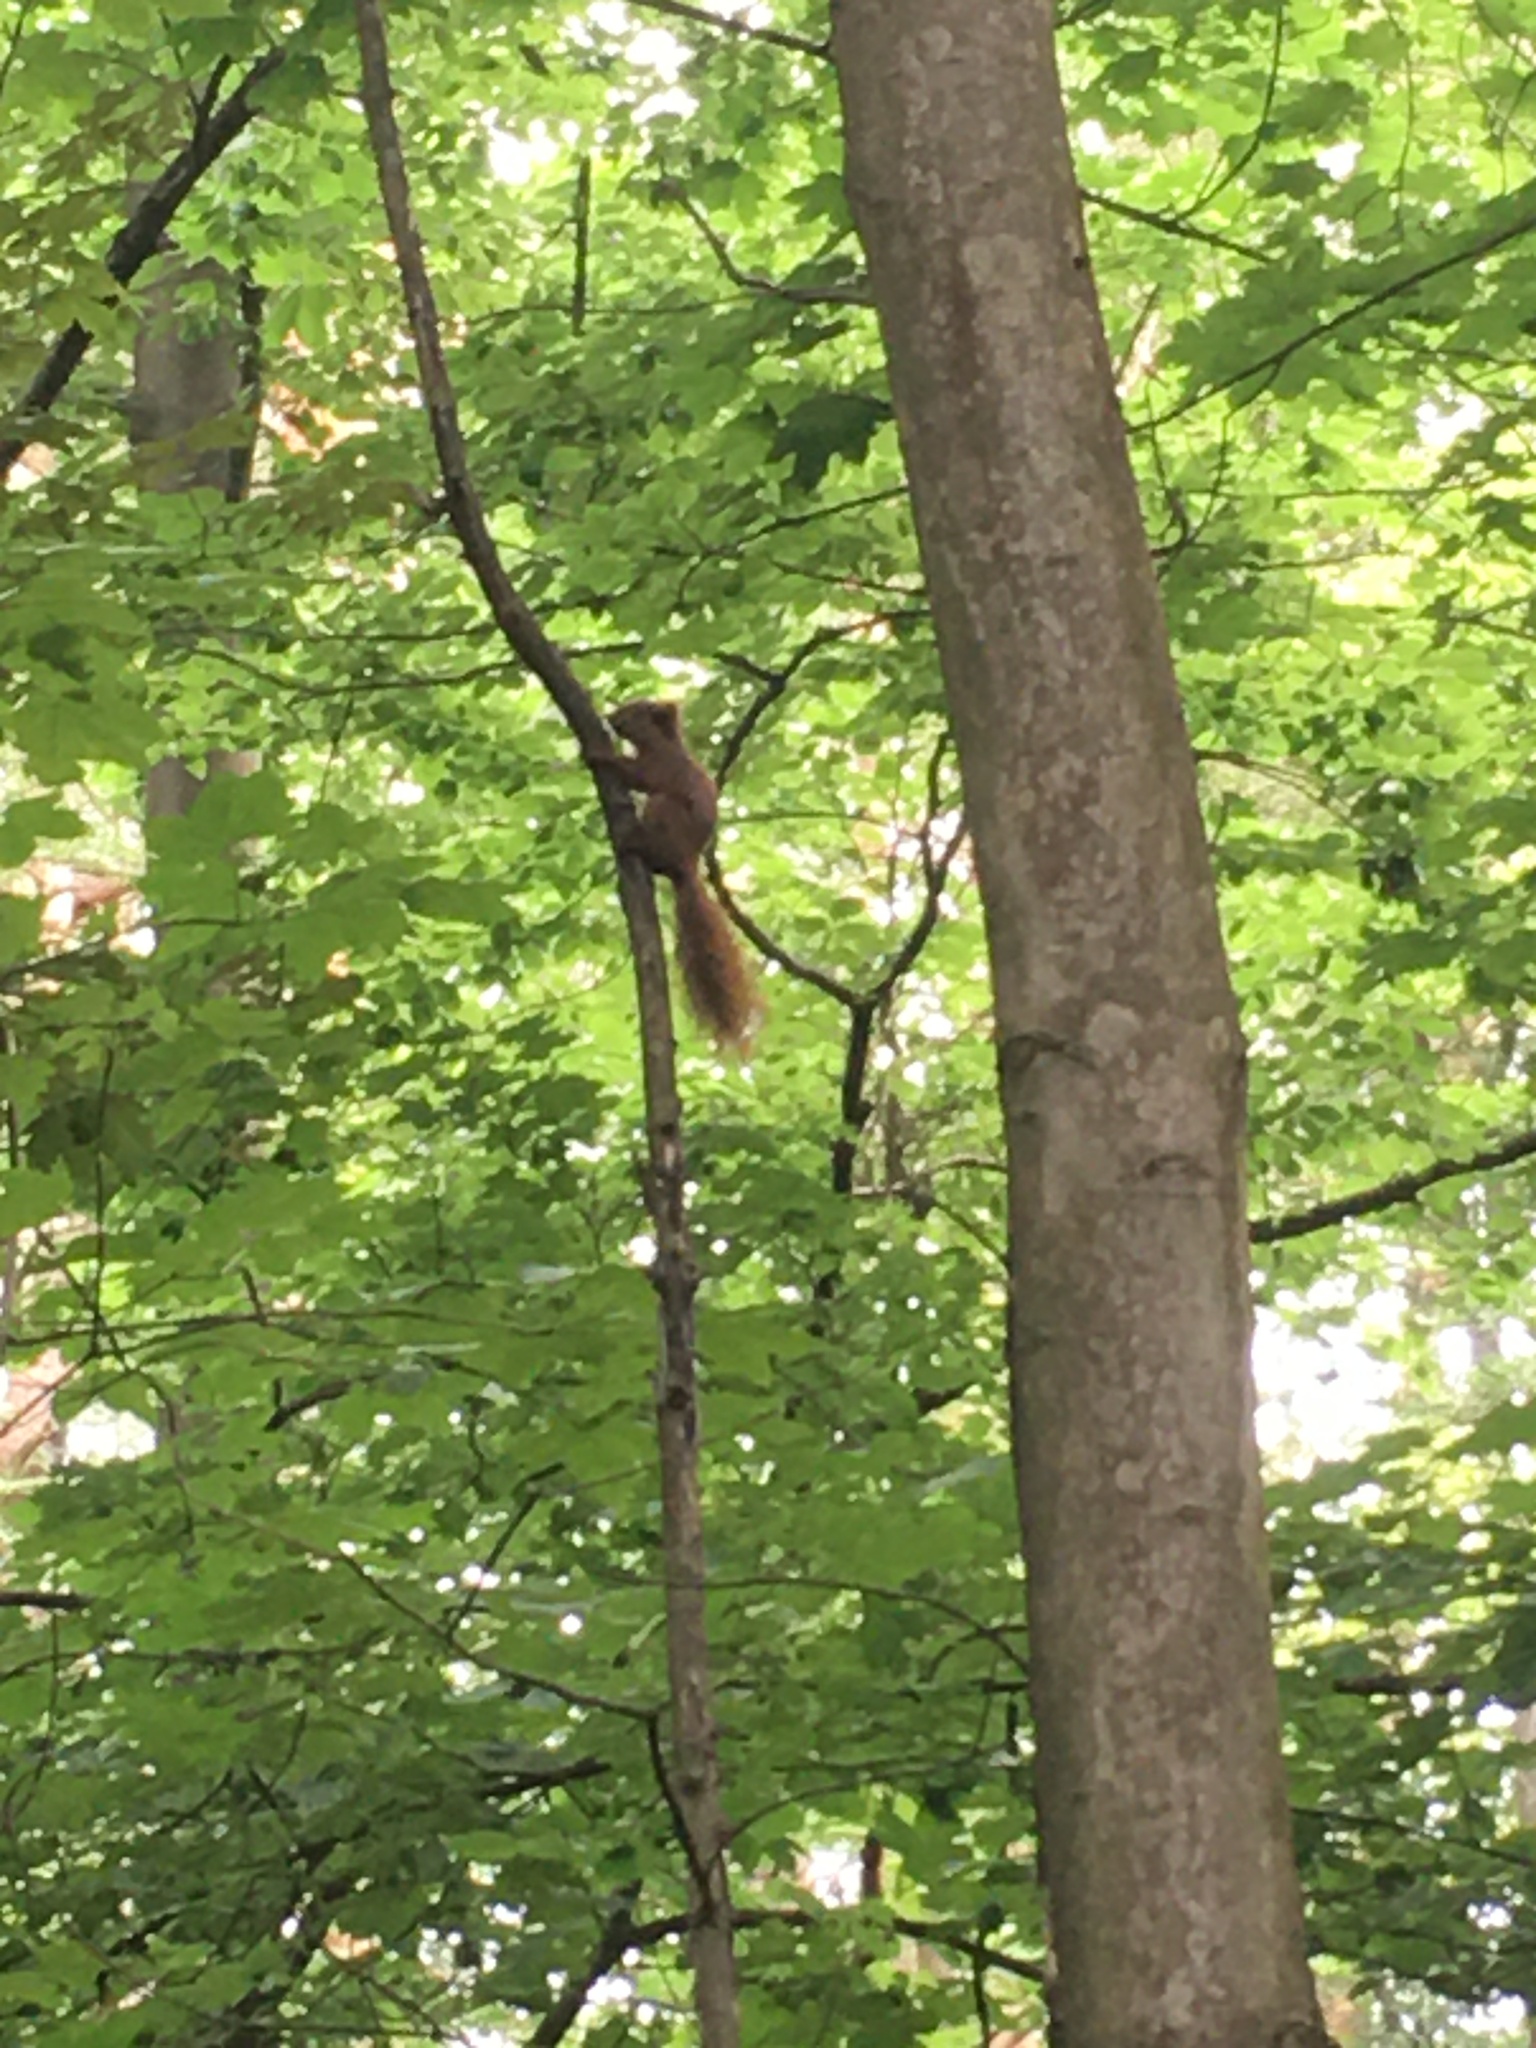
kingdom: Animalia
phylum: Chordata
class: Mammalia
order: Rodentia
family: Sciuridae
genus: Sciurus
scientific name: Sciurus vulgaris
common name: Eurasian red squirrel
